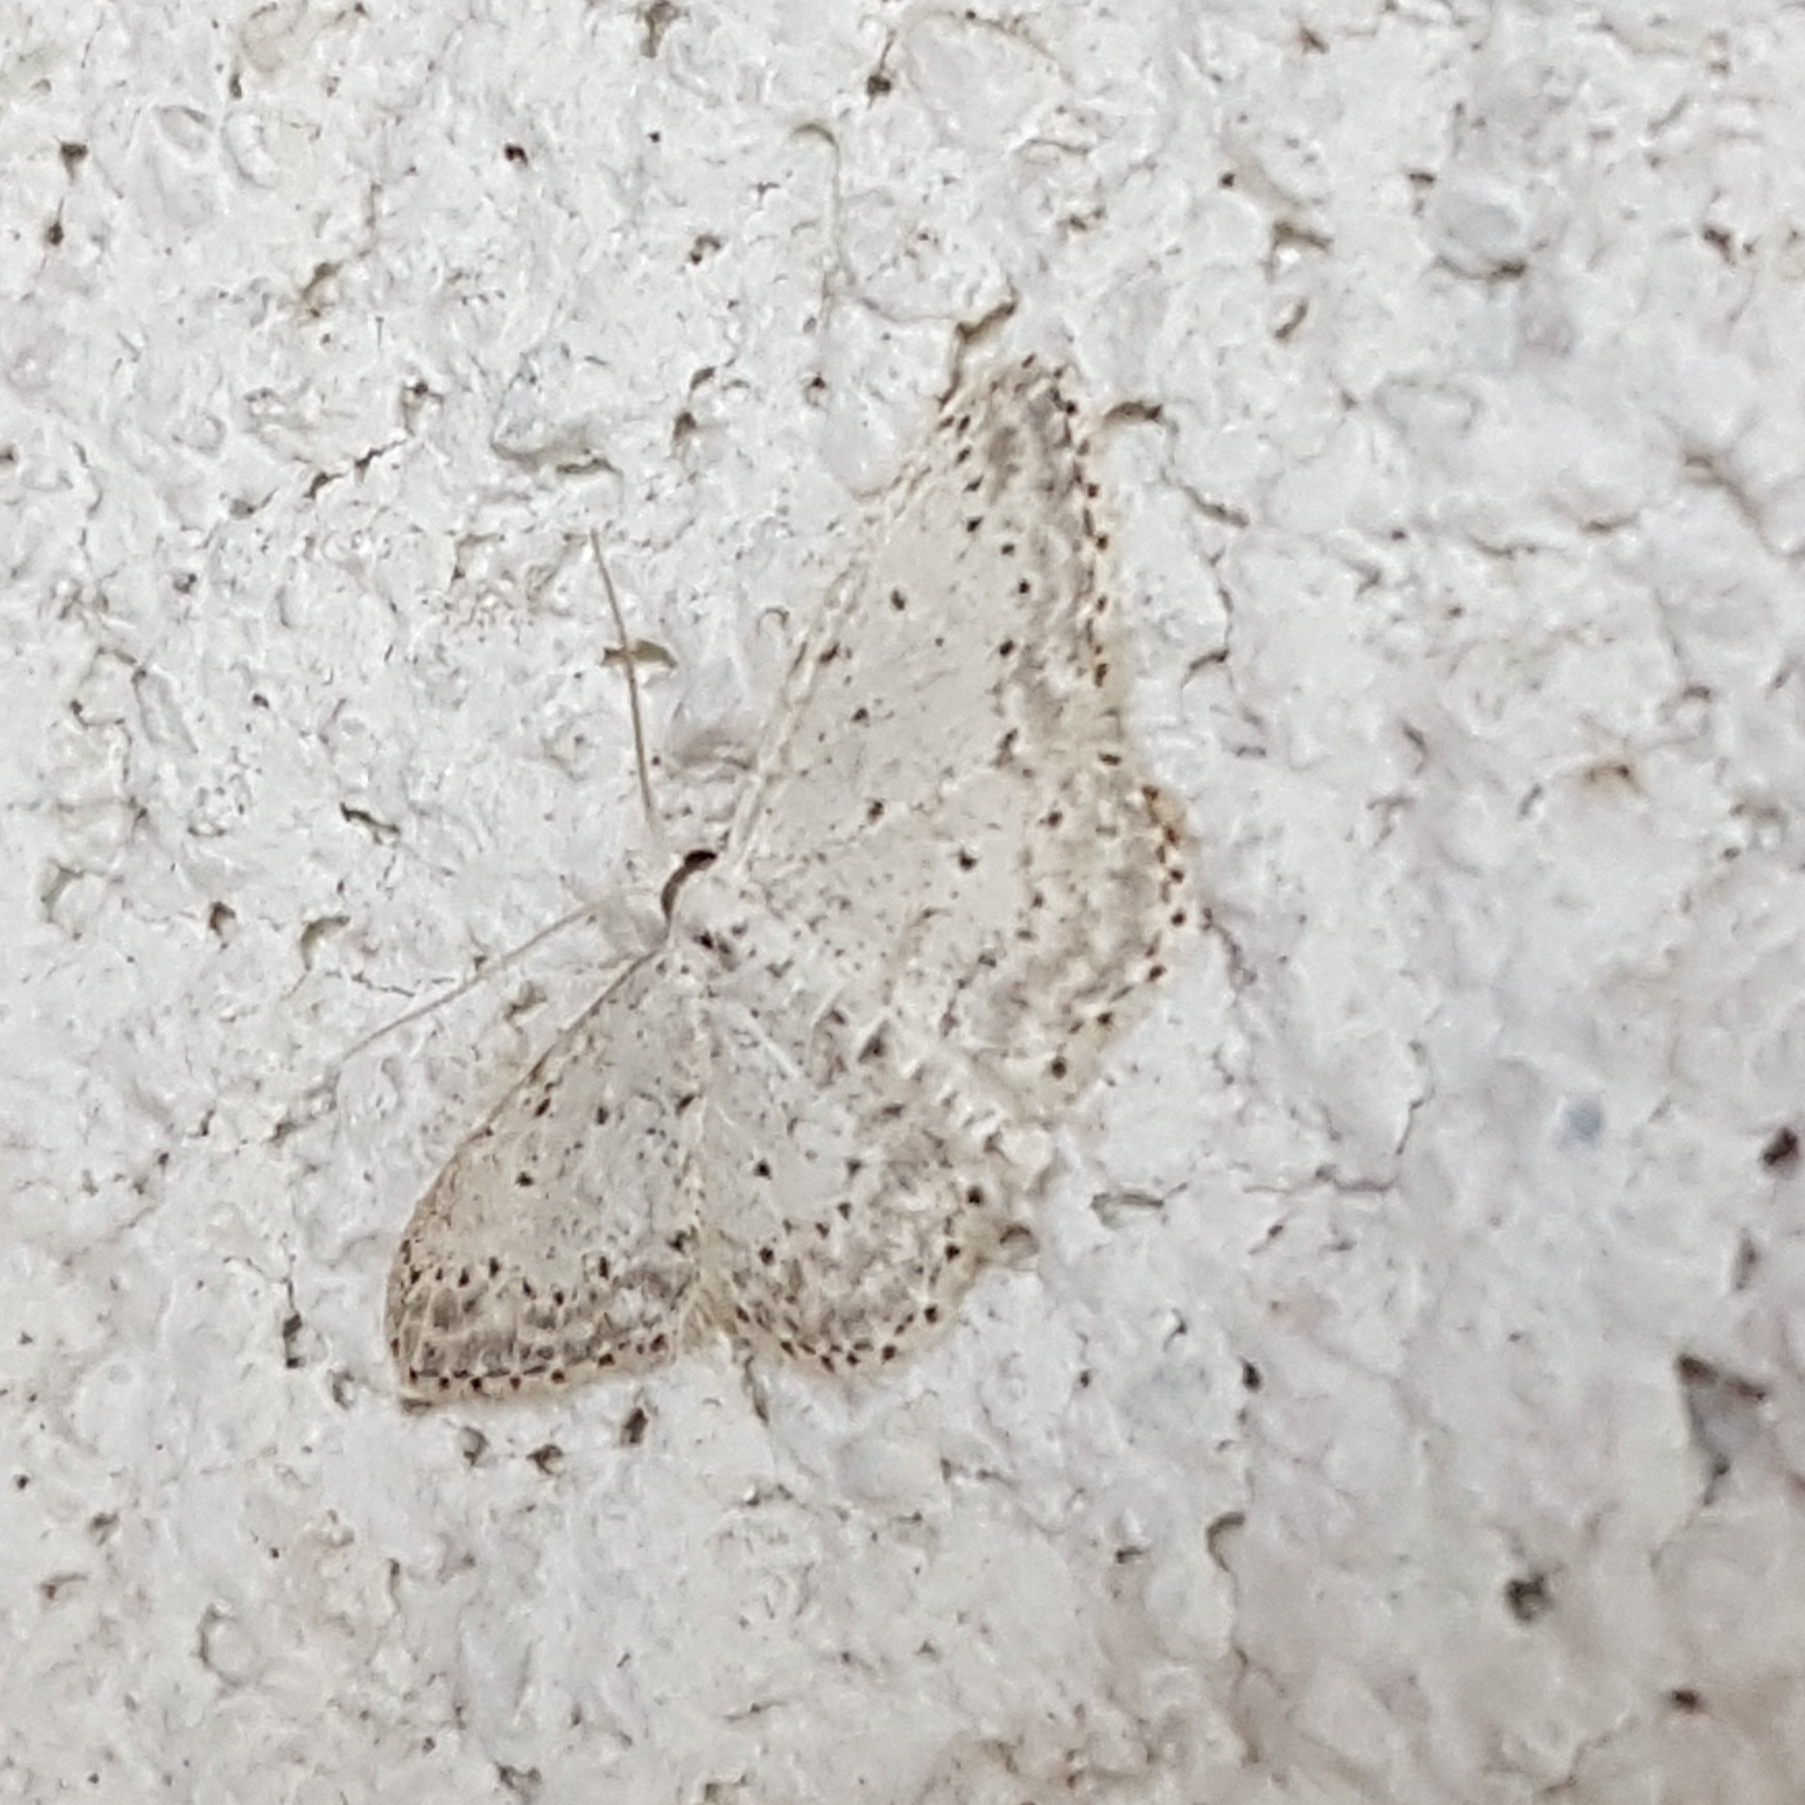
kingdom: Animalia
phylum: Arthropoda
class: Insecta
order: Lepidoptera
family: Geometridae
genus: Idaea
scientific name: Idaea seriata
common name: Small dusty wave
